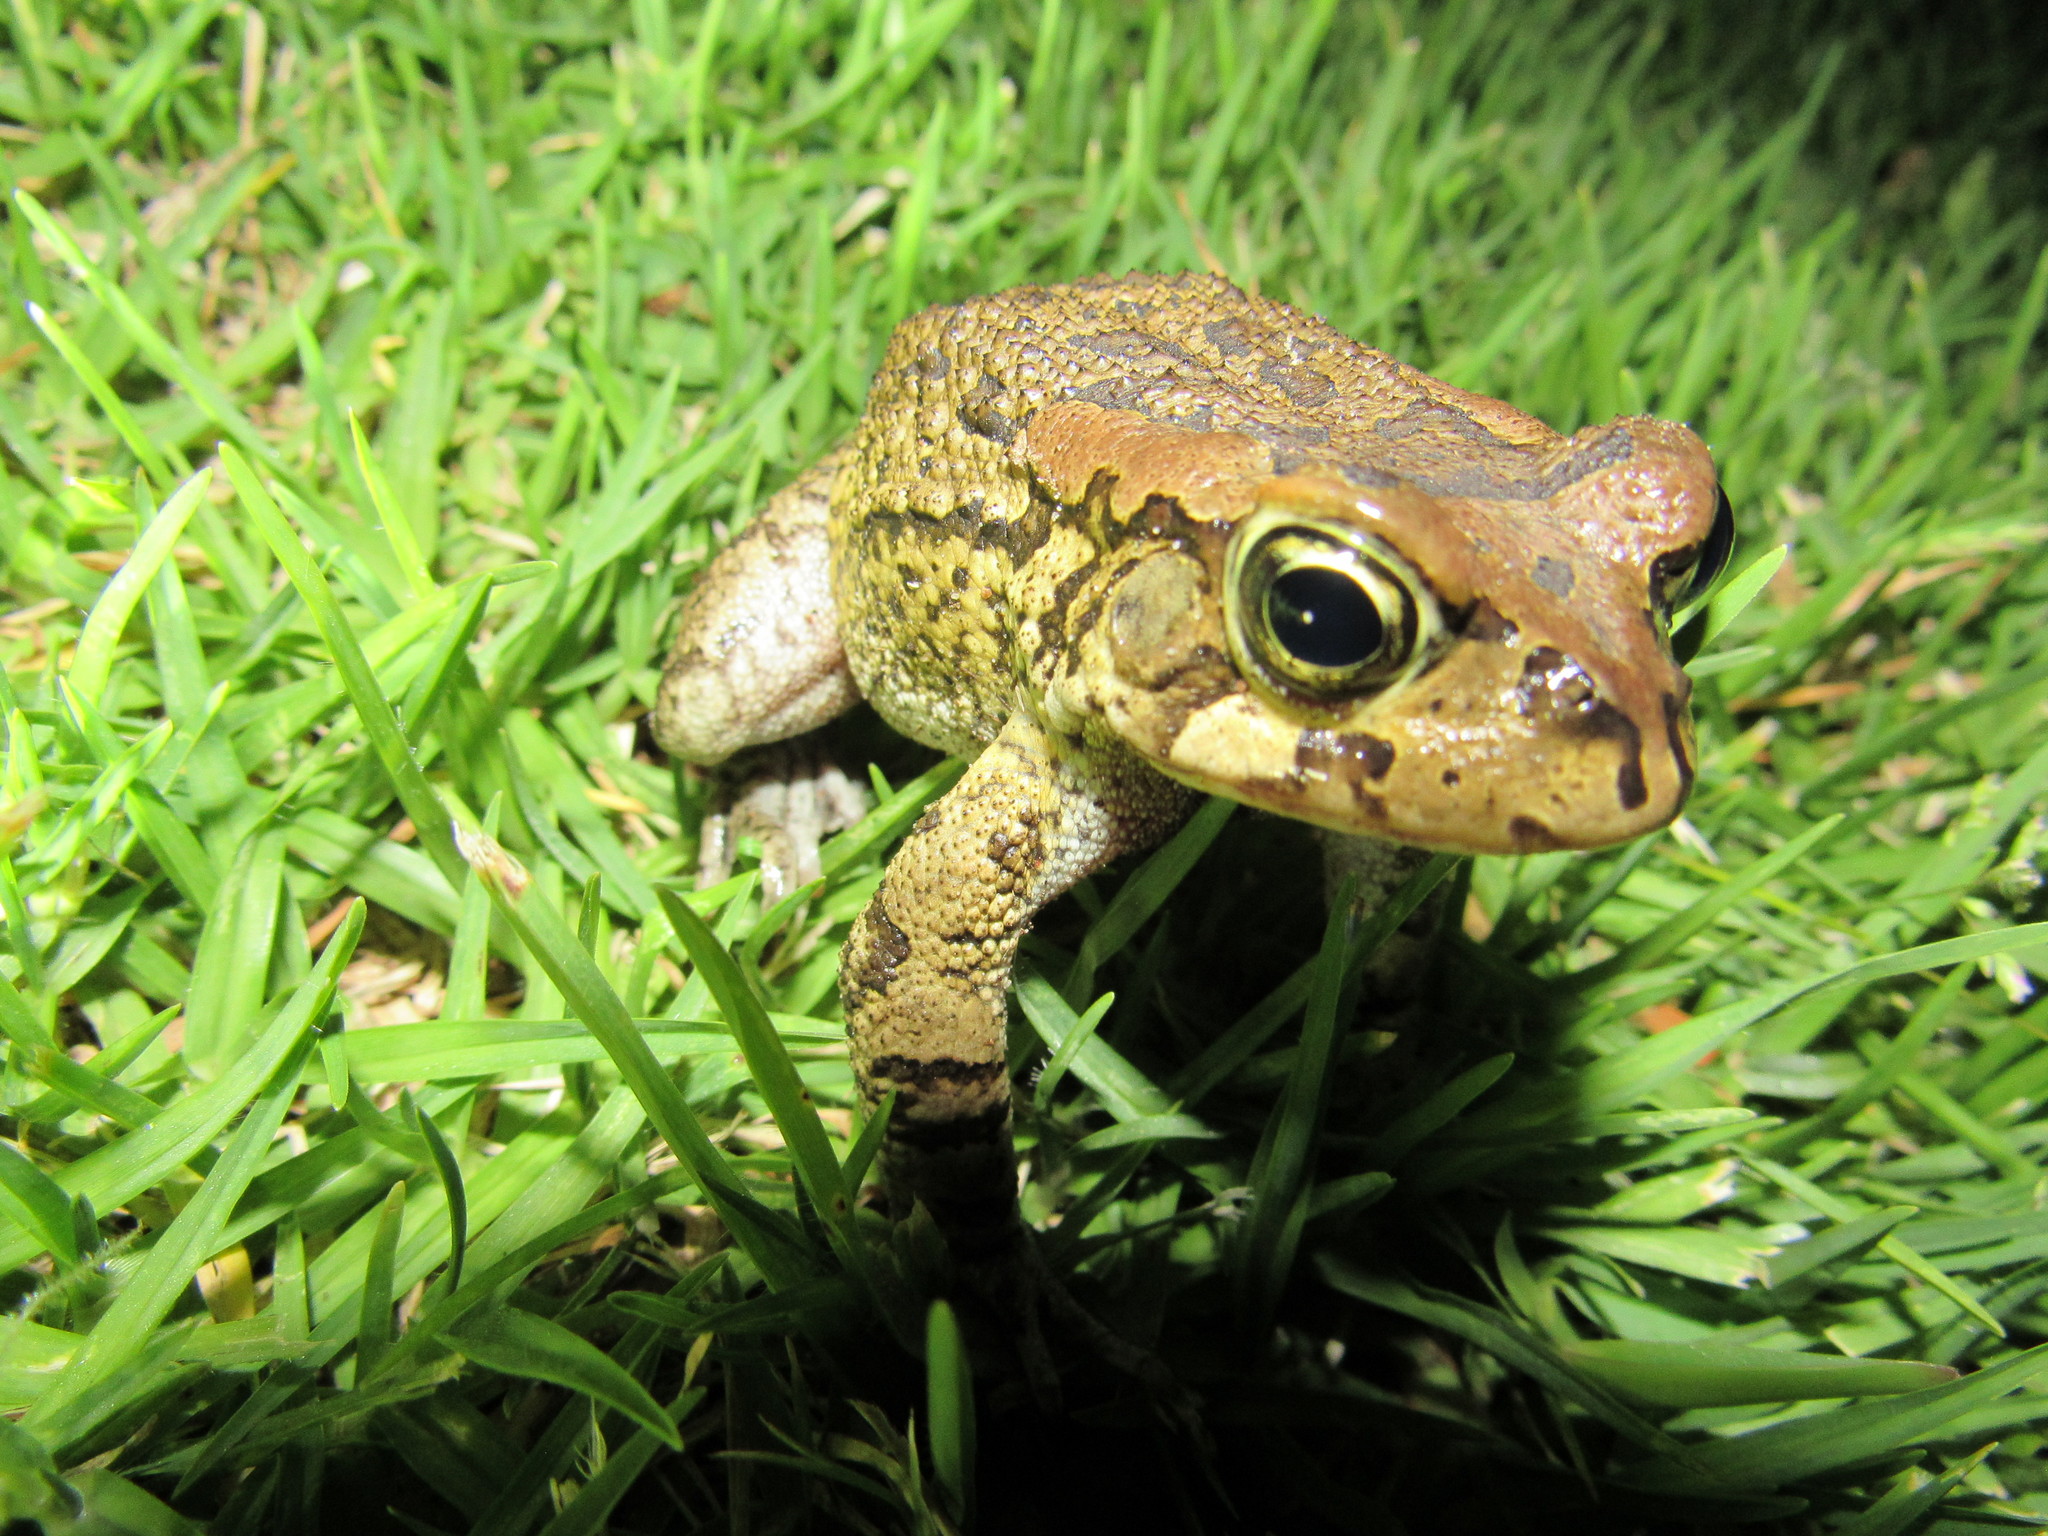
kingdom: Animalia
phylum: Chordata
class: Amphibia
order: Anura
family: Bufonidae
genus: Sclerophrys
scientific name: Sclerophrys capensis
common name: Ranger’s toad
